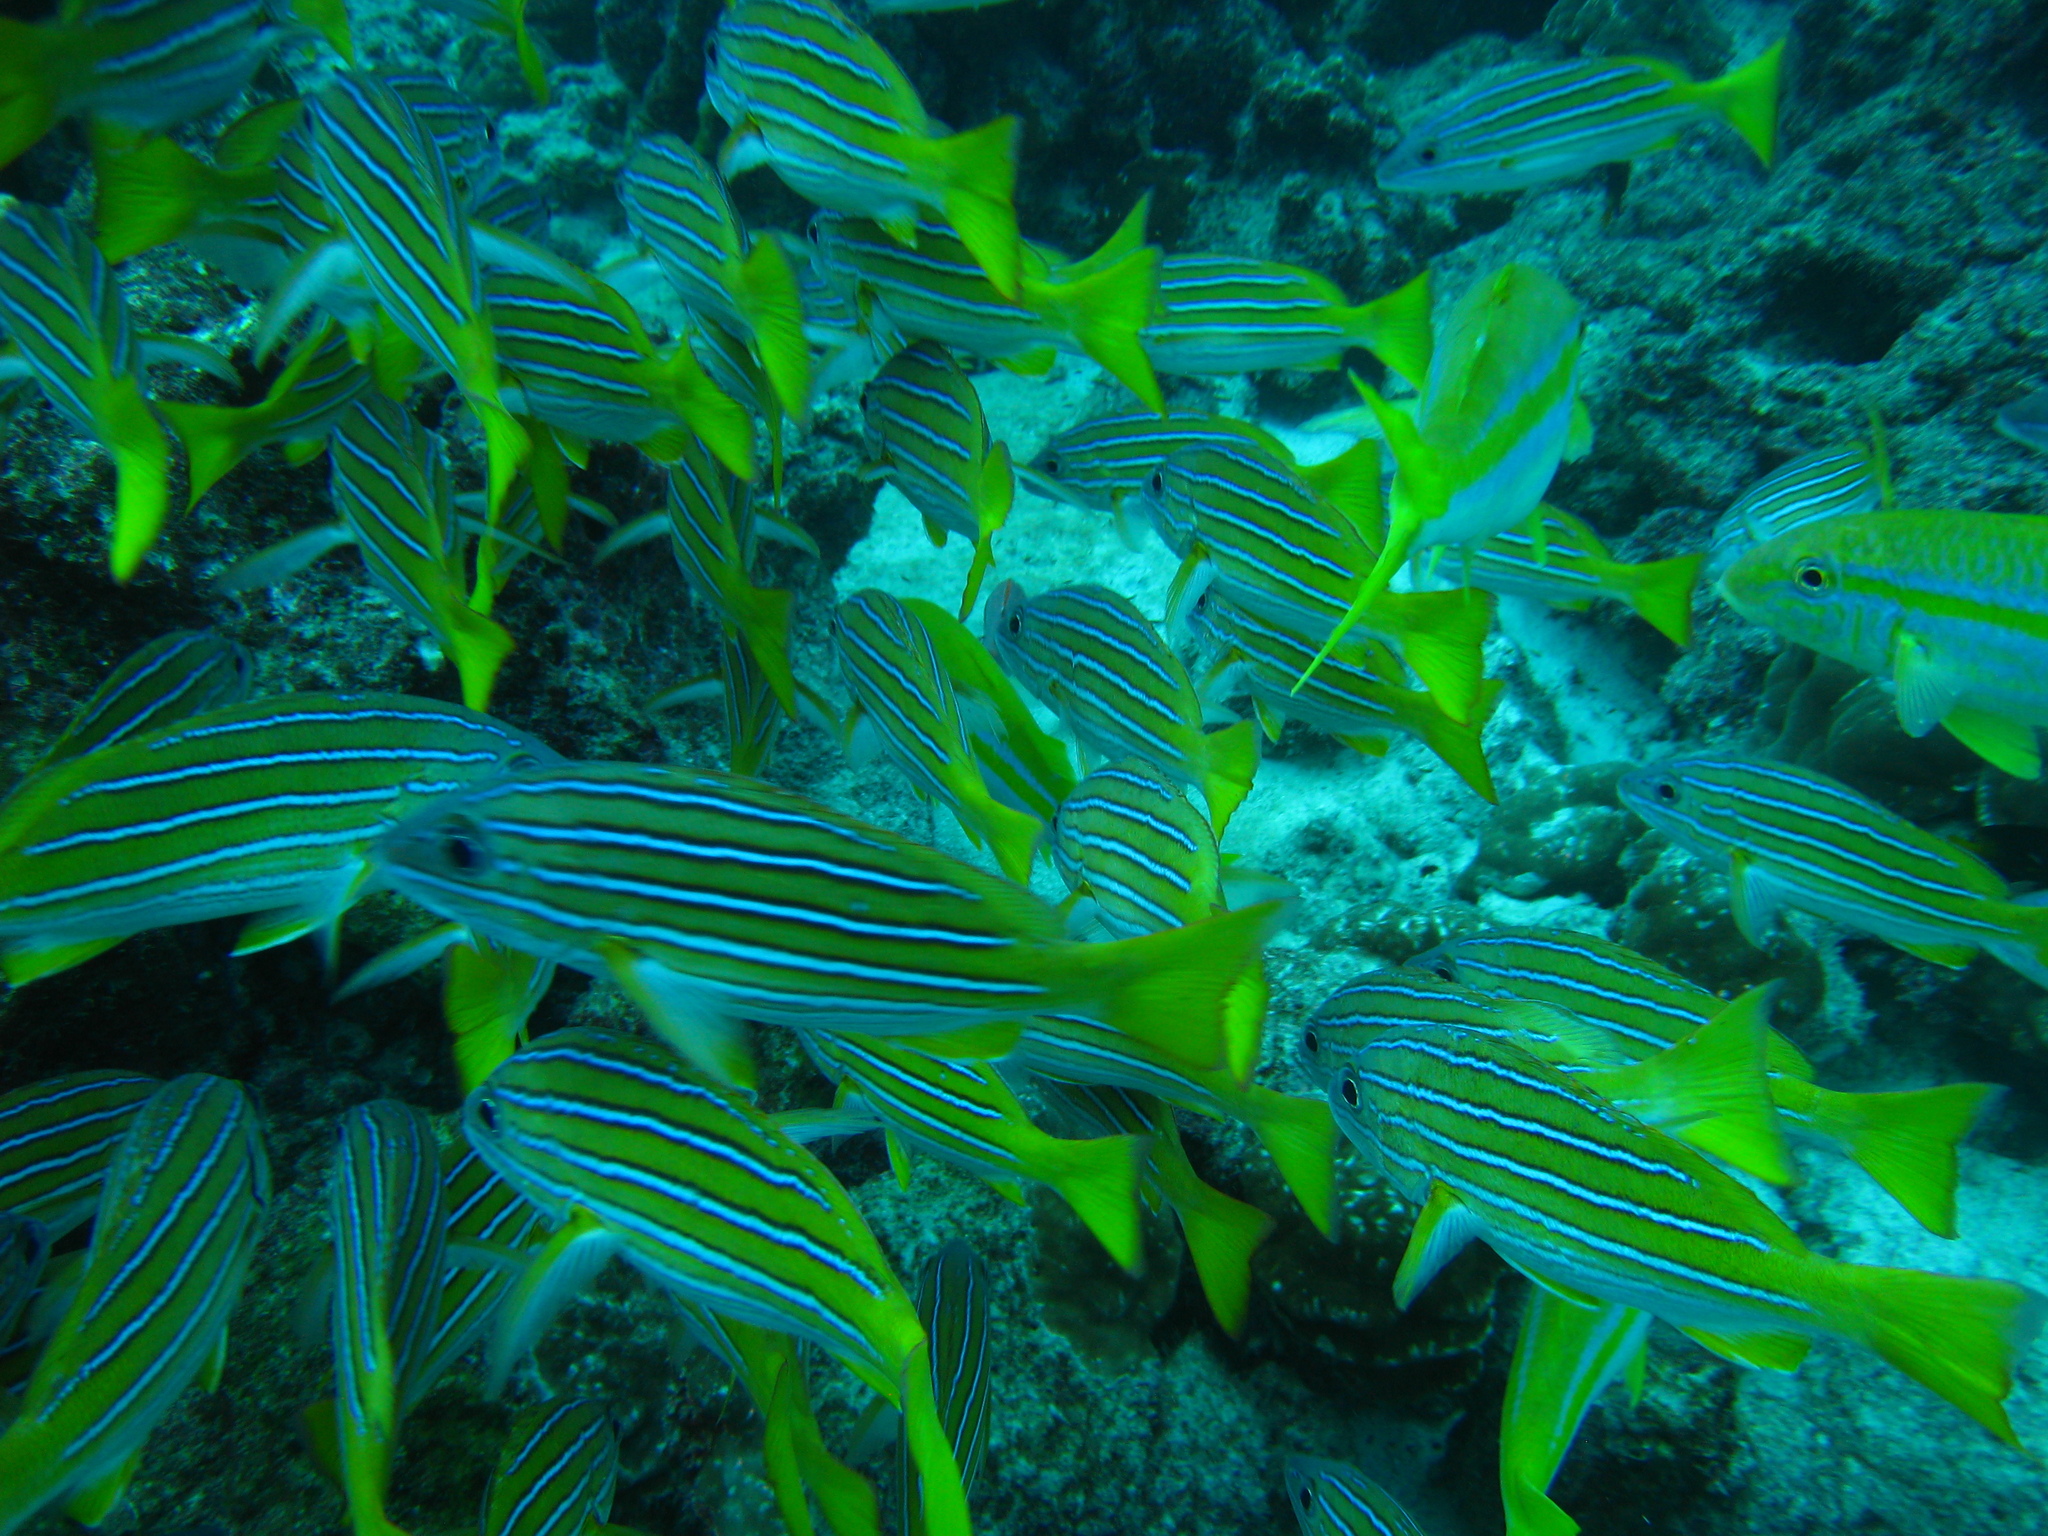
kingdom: Animalia
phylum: Chordata
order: Perciformes
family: Lutjanidae
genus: Lutjanus
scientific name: Lutjanus viridis
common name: Blue and gold snapper
